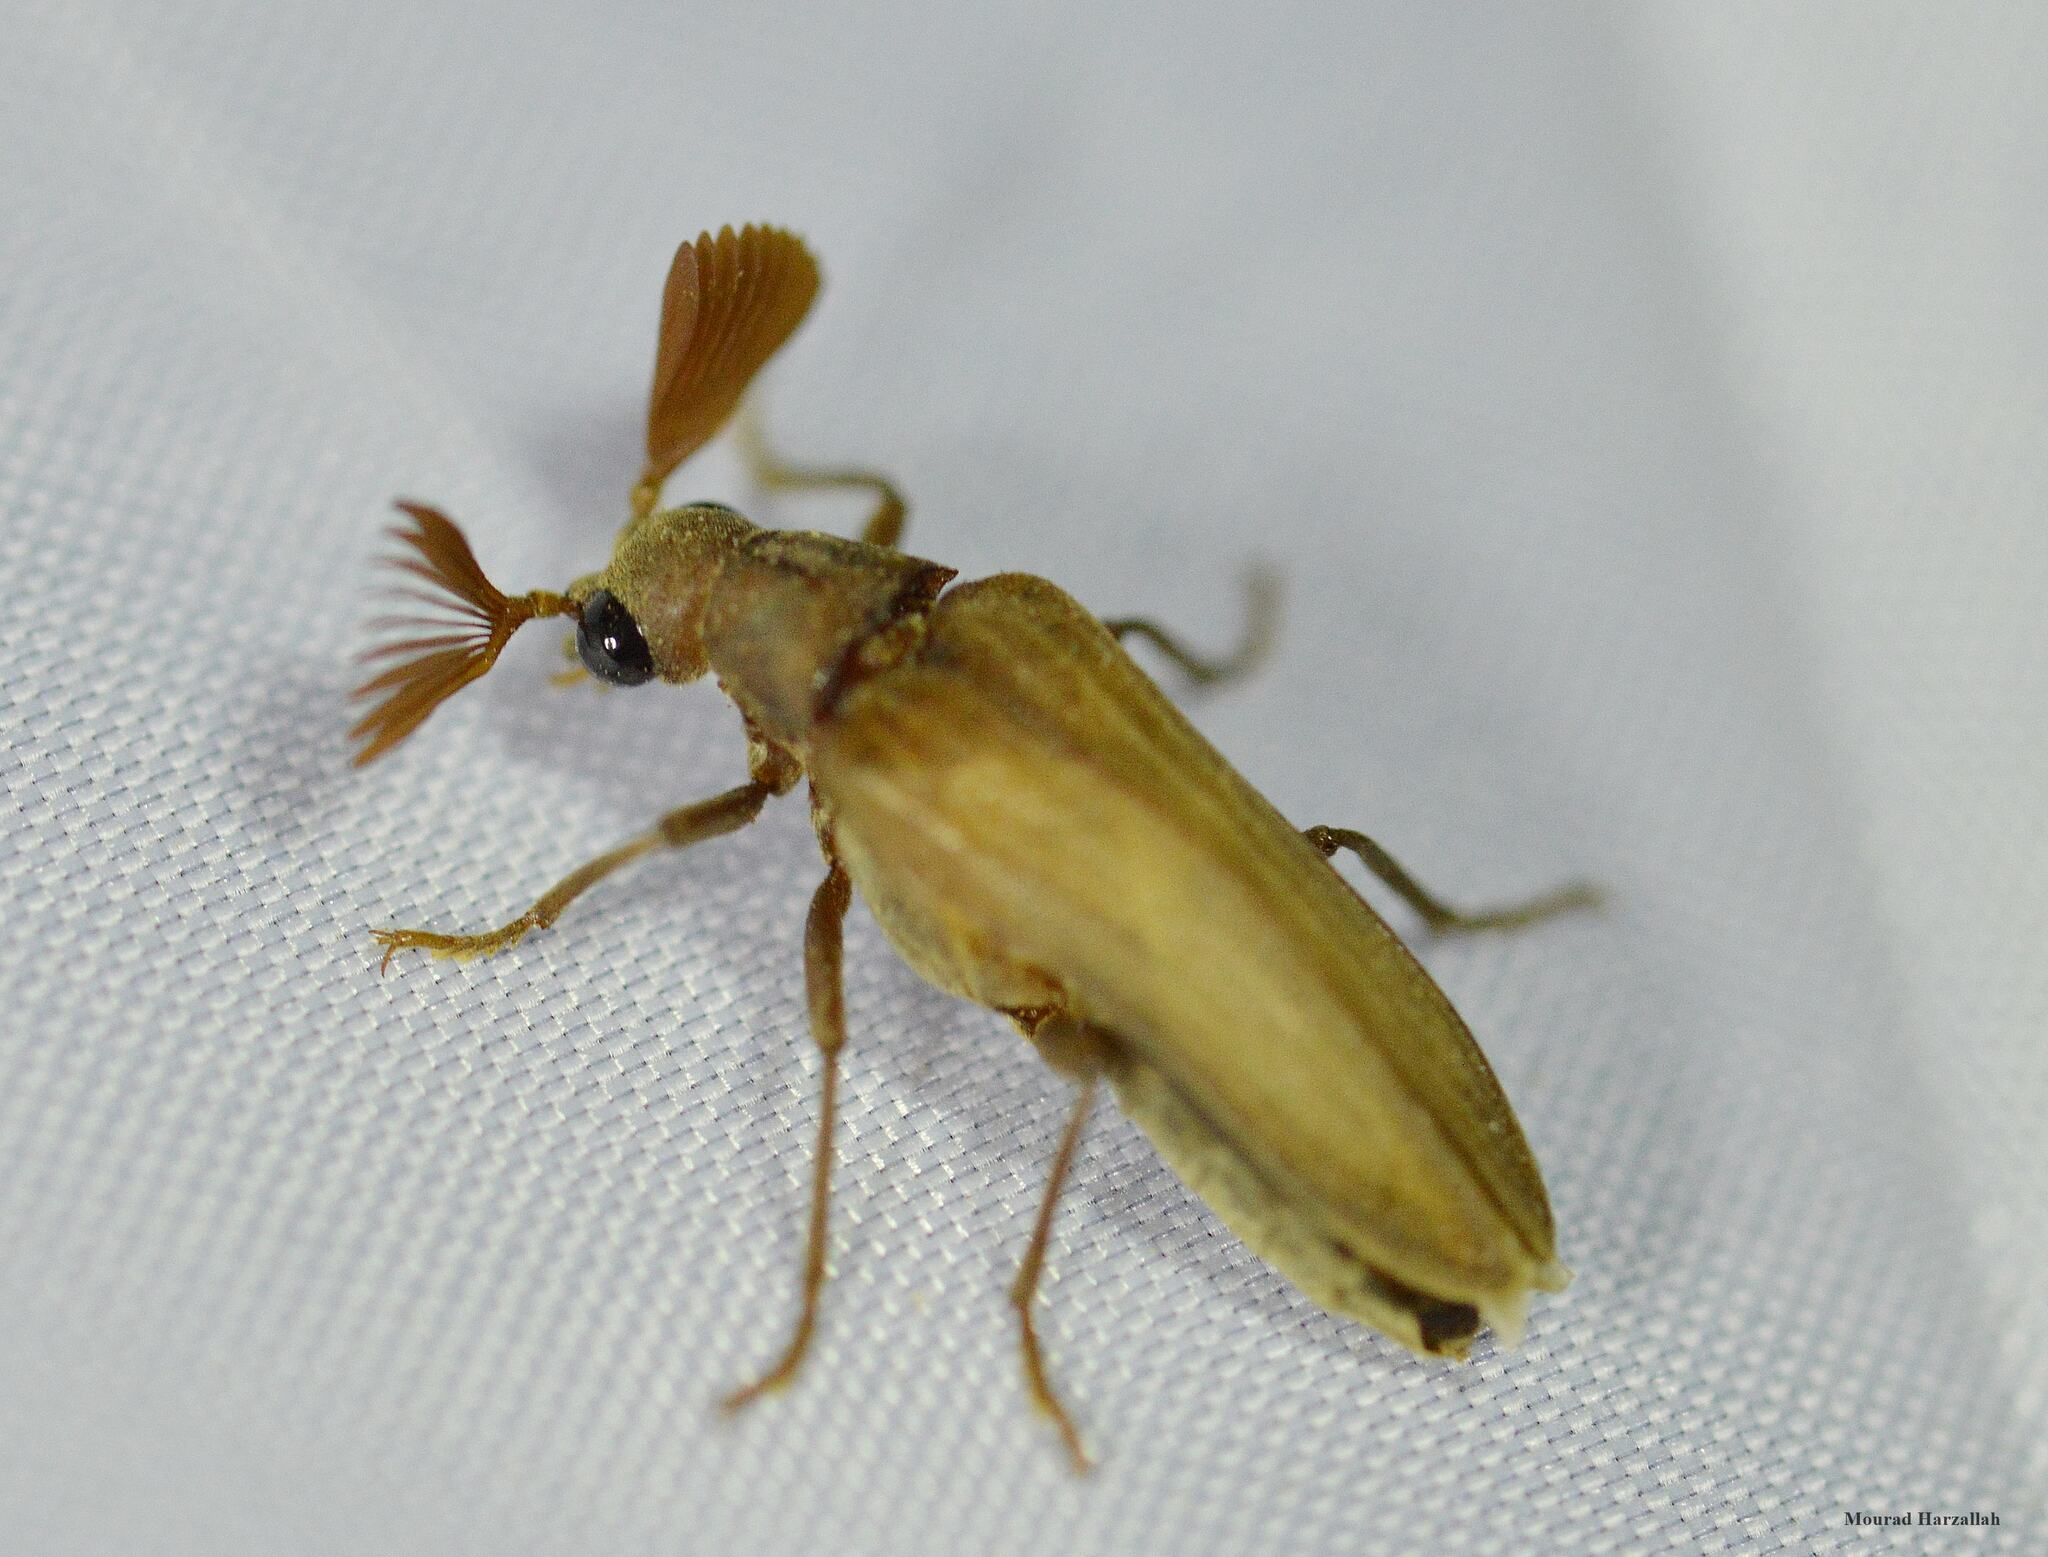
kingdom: Animalia
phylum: Arthropoda
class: Insecta
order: Coleoptera
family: Rhipiceridae
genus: Arrhaphipterus
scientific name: Arrhaphipterus
